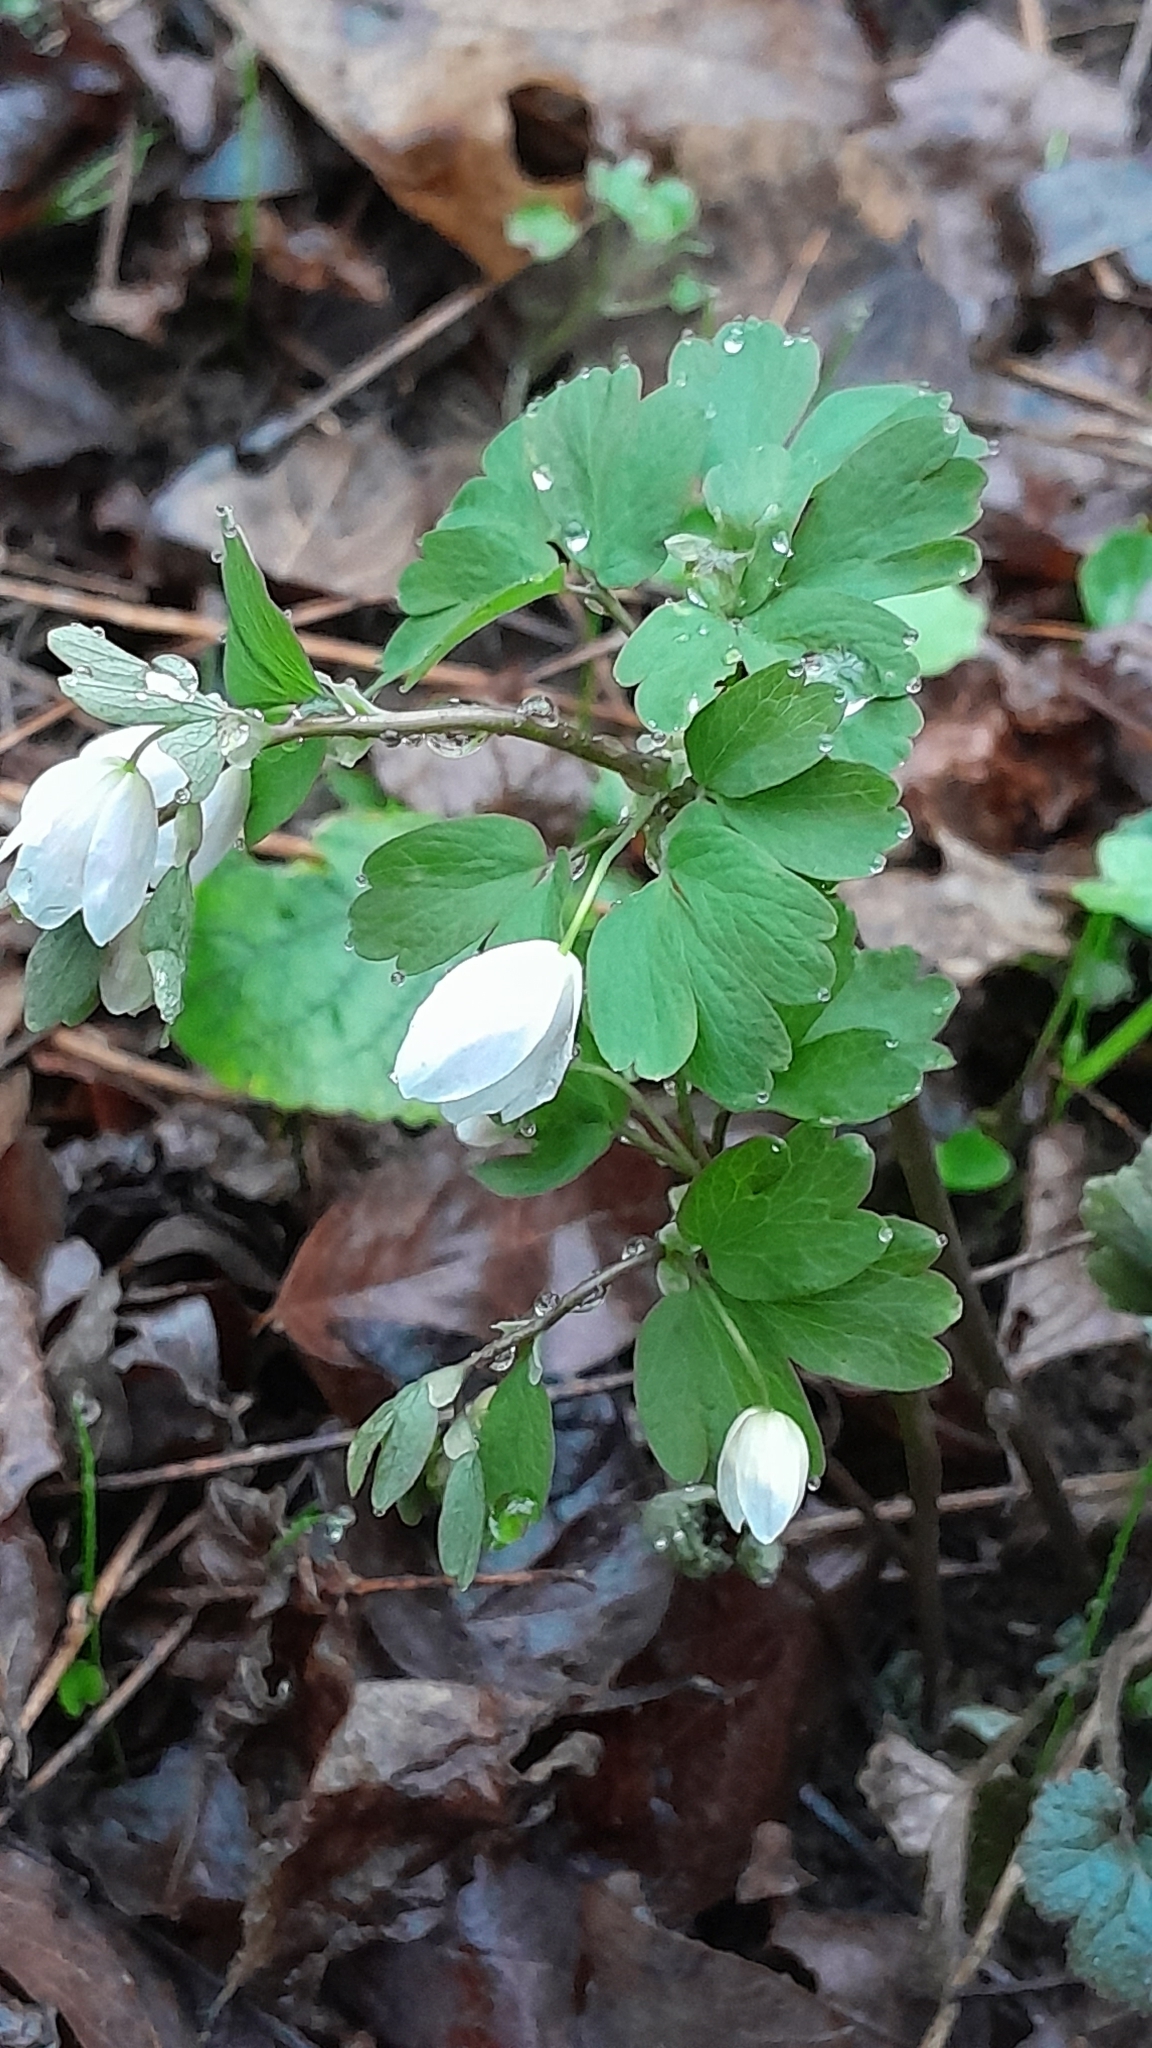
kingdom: Plantae
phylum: Tracheophyta
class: Magnoliopsida
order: Ranunculales
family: Ranunculaceae
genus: Isopyrum
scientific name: Isopyrum thalictroides
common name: Isopyrum
